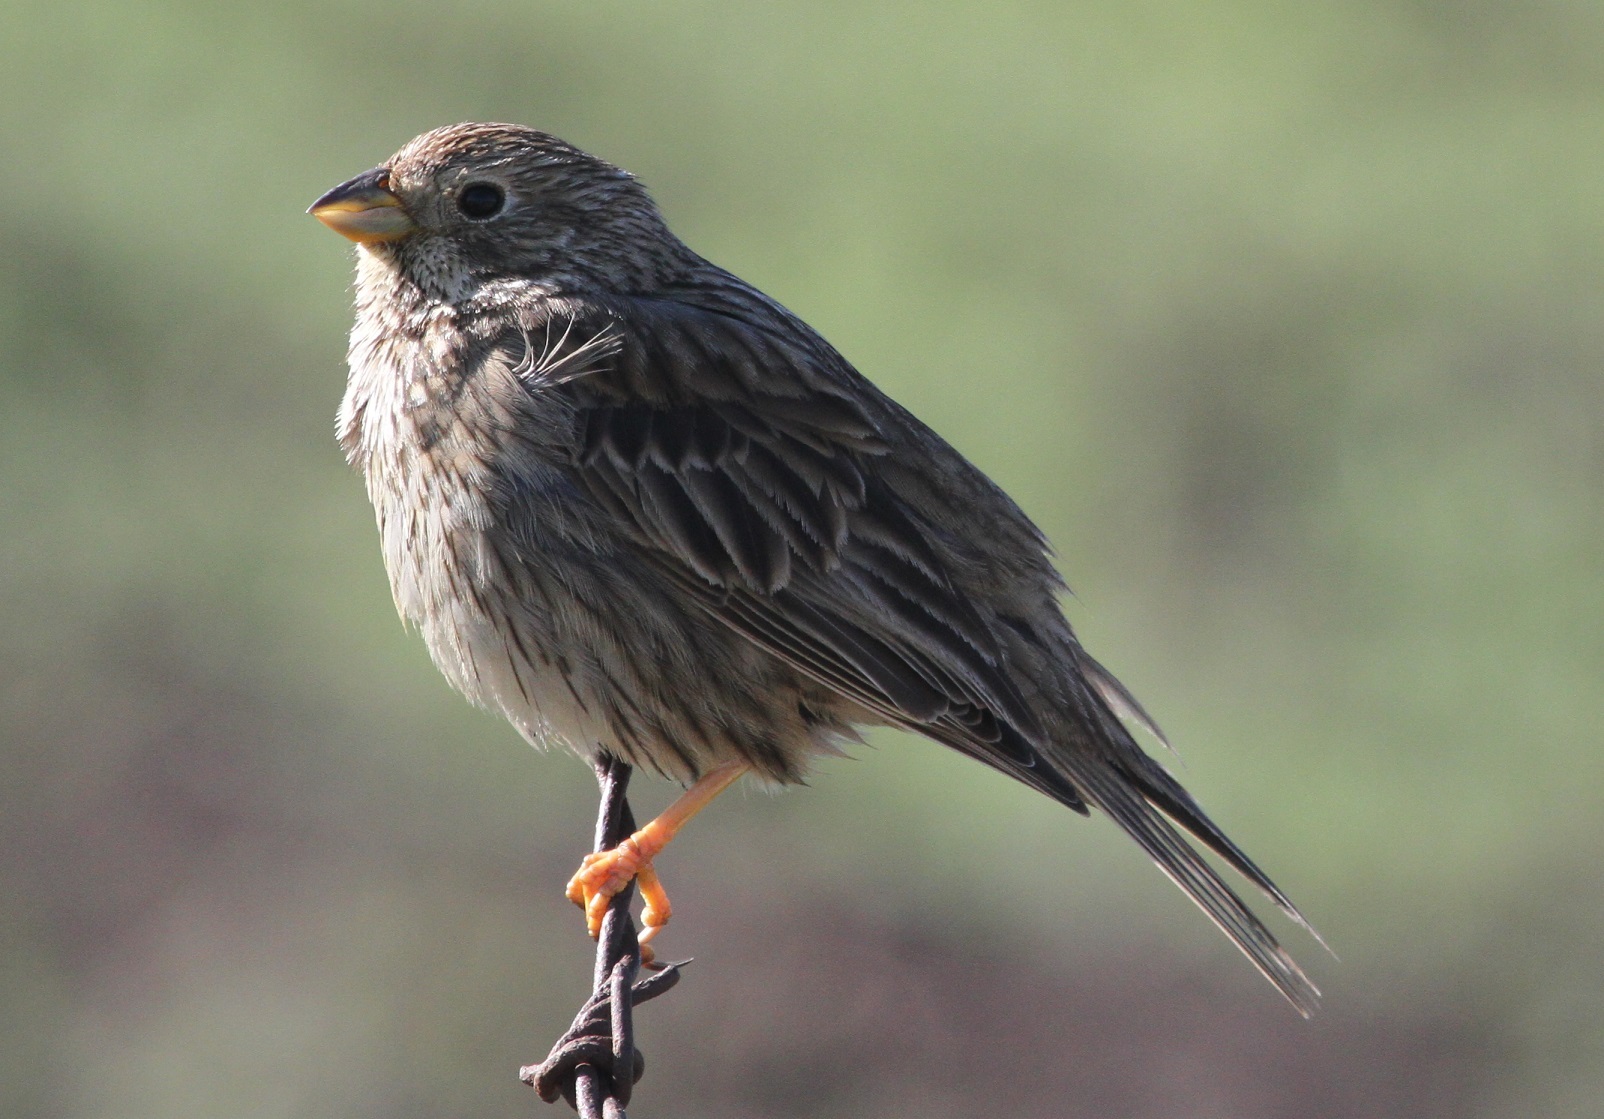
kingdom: Animalia
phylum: Chordata
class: Aves
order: Passeriformes
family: Emberizidae
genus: Emberiza
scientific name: Emberiza calandra
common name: Corn bunting
